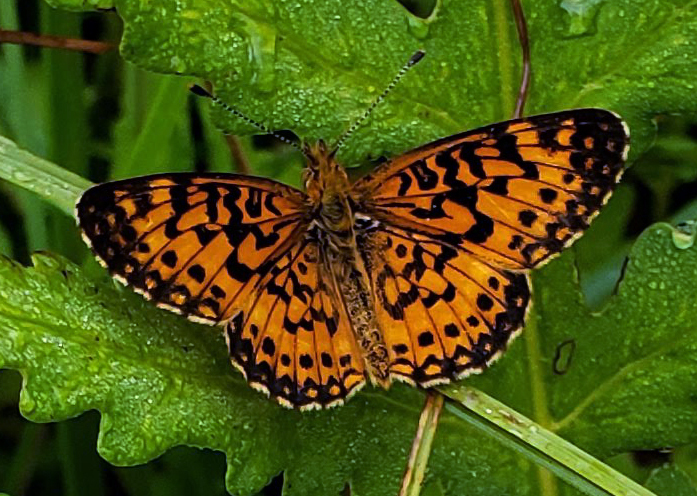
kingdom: Animalia
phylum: Arthropoda
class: Insecta
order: Lepidoptera
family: Nymphalidae
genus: Boloria
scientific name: Boloria
